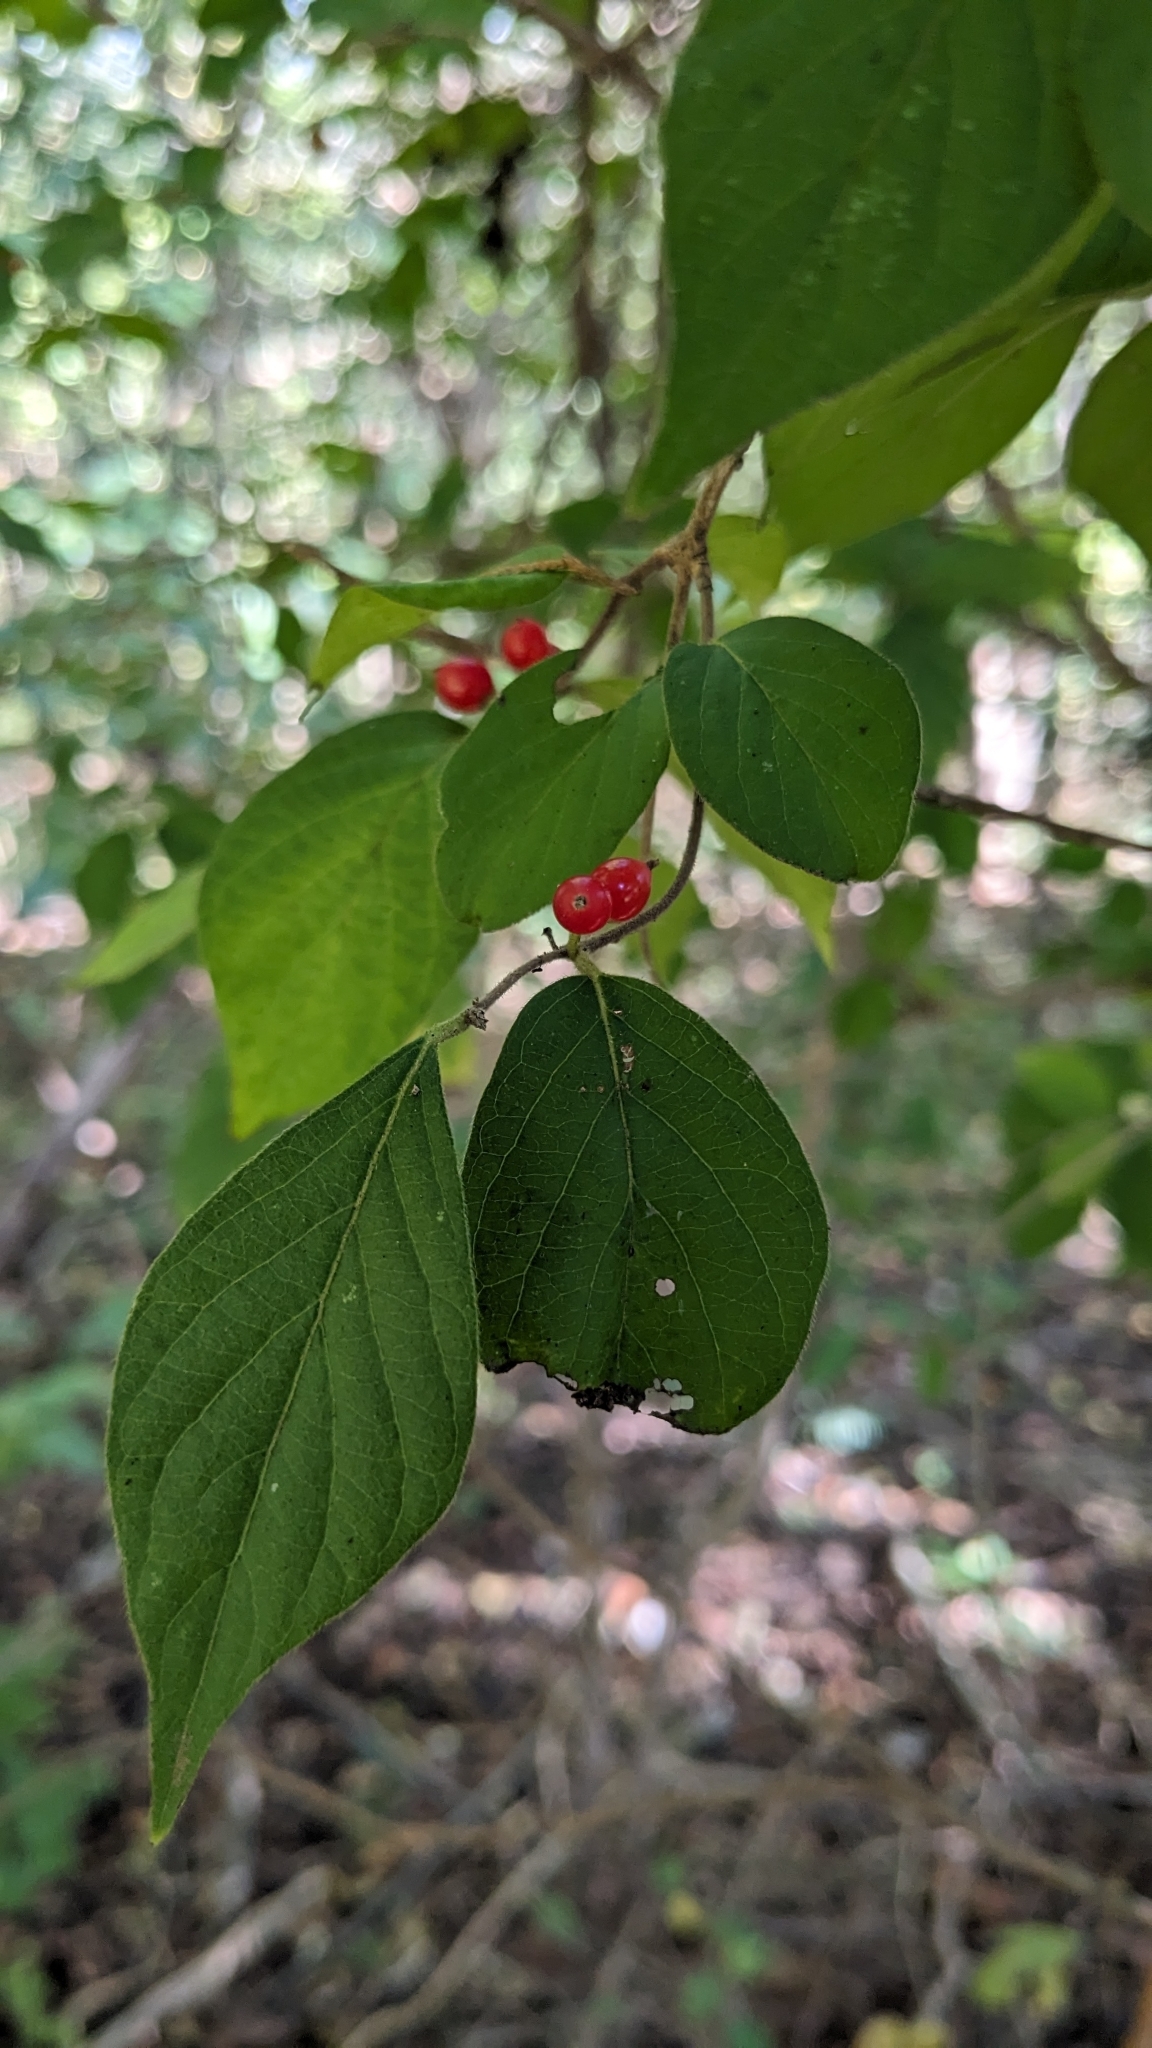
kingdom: Plantae
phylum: Tracheophyta
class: Magnoliopsida
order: Dipsacales
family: Caprifoliaceae
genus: Lonicera
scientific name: Lonicera maackii
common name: Amur honeysuckle
